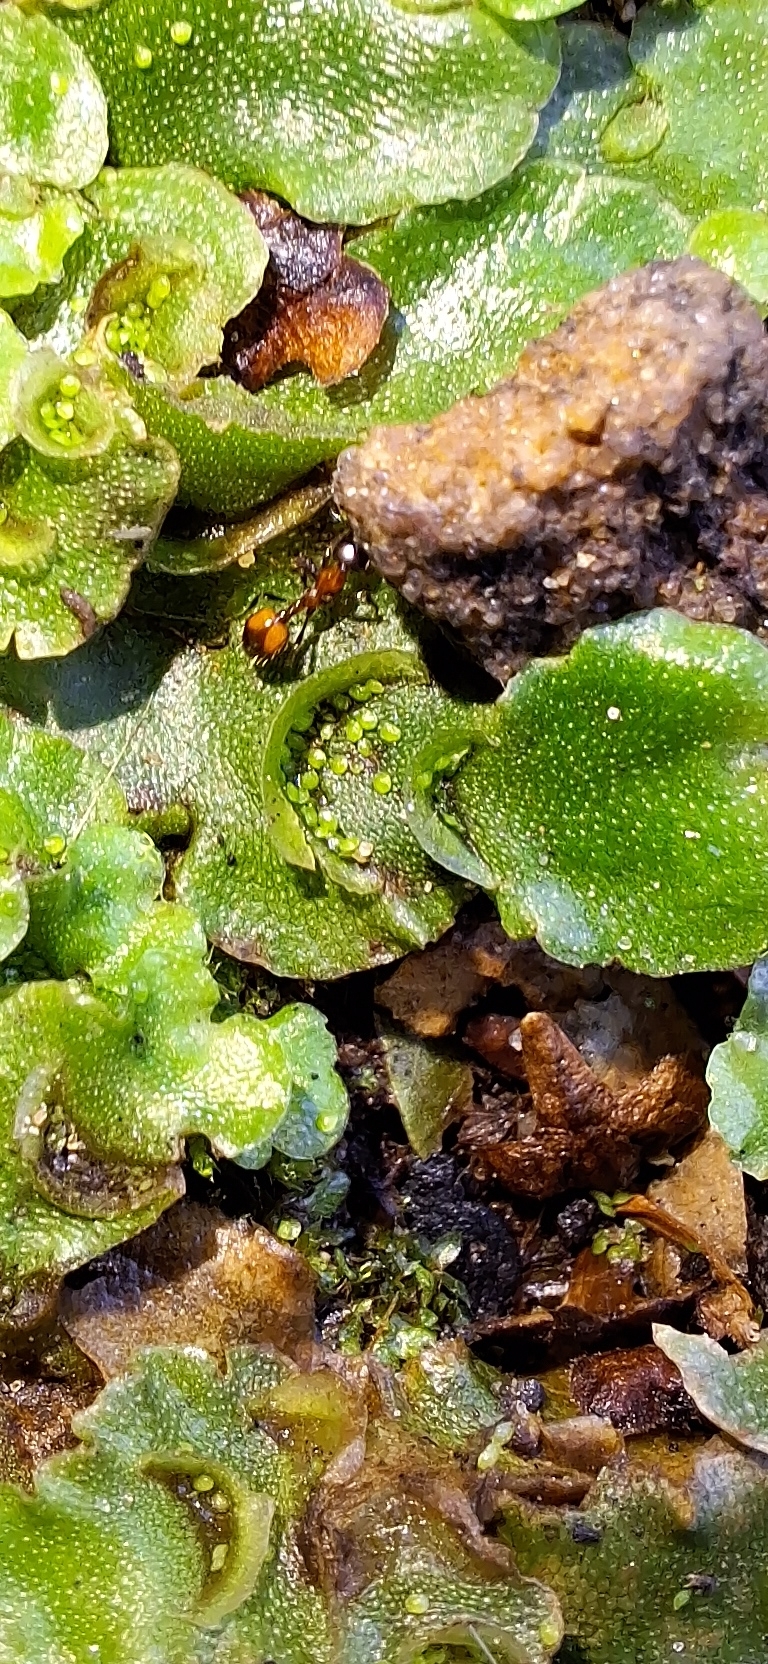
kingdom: Plantae
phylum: Marchantiophyta
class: Marchantiopsida
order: Lunulariales
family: Lunulariaceae
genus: Lunularia
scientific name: Lunularia cruciata
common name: Crescent-cup liverwort
